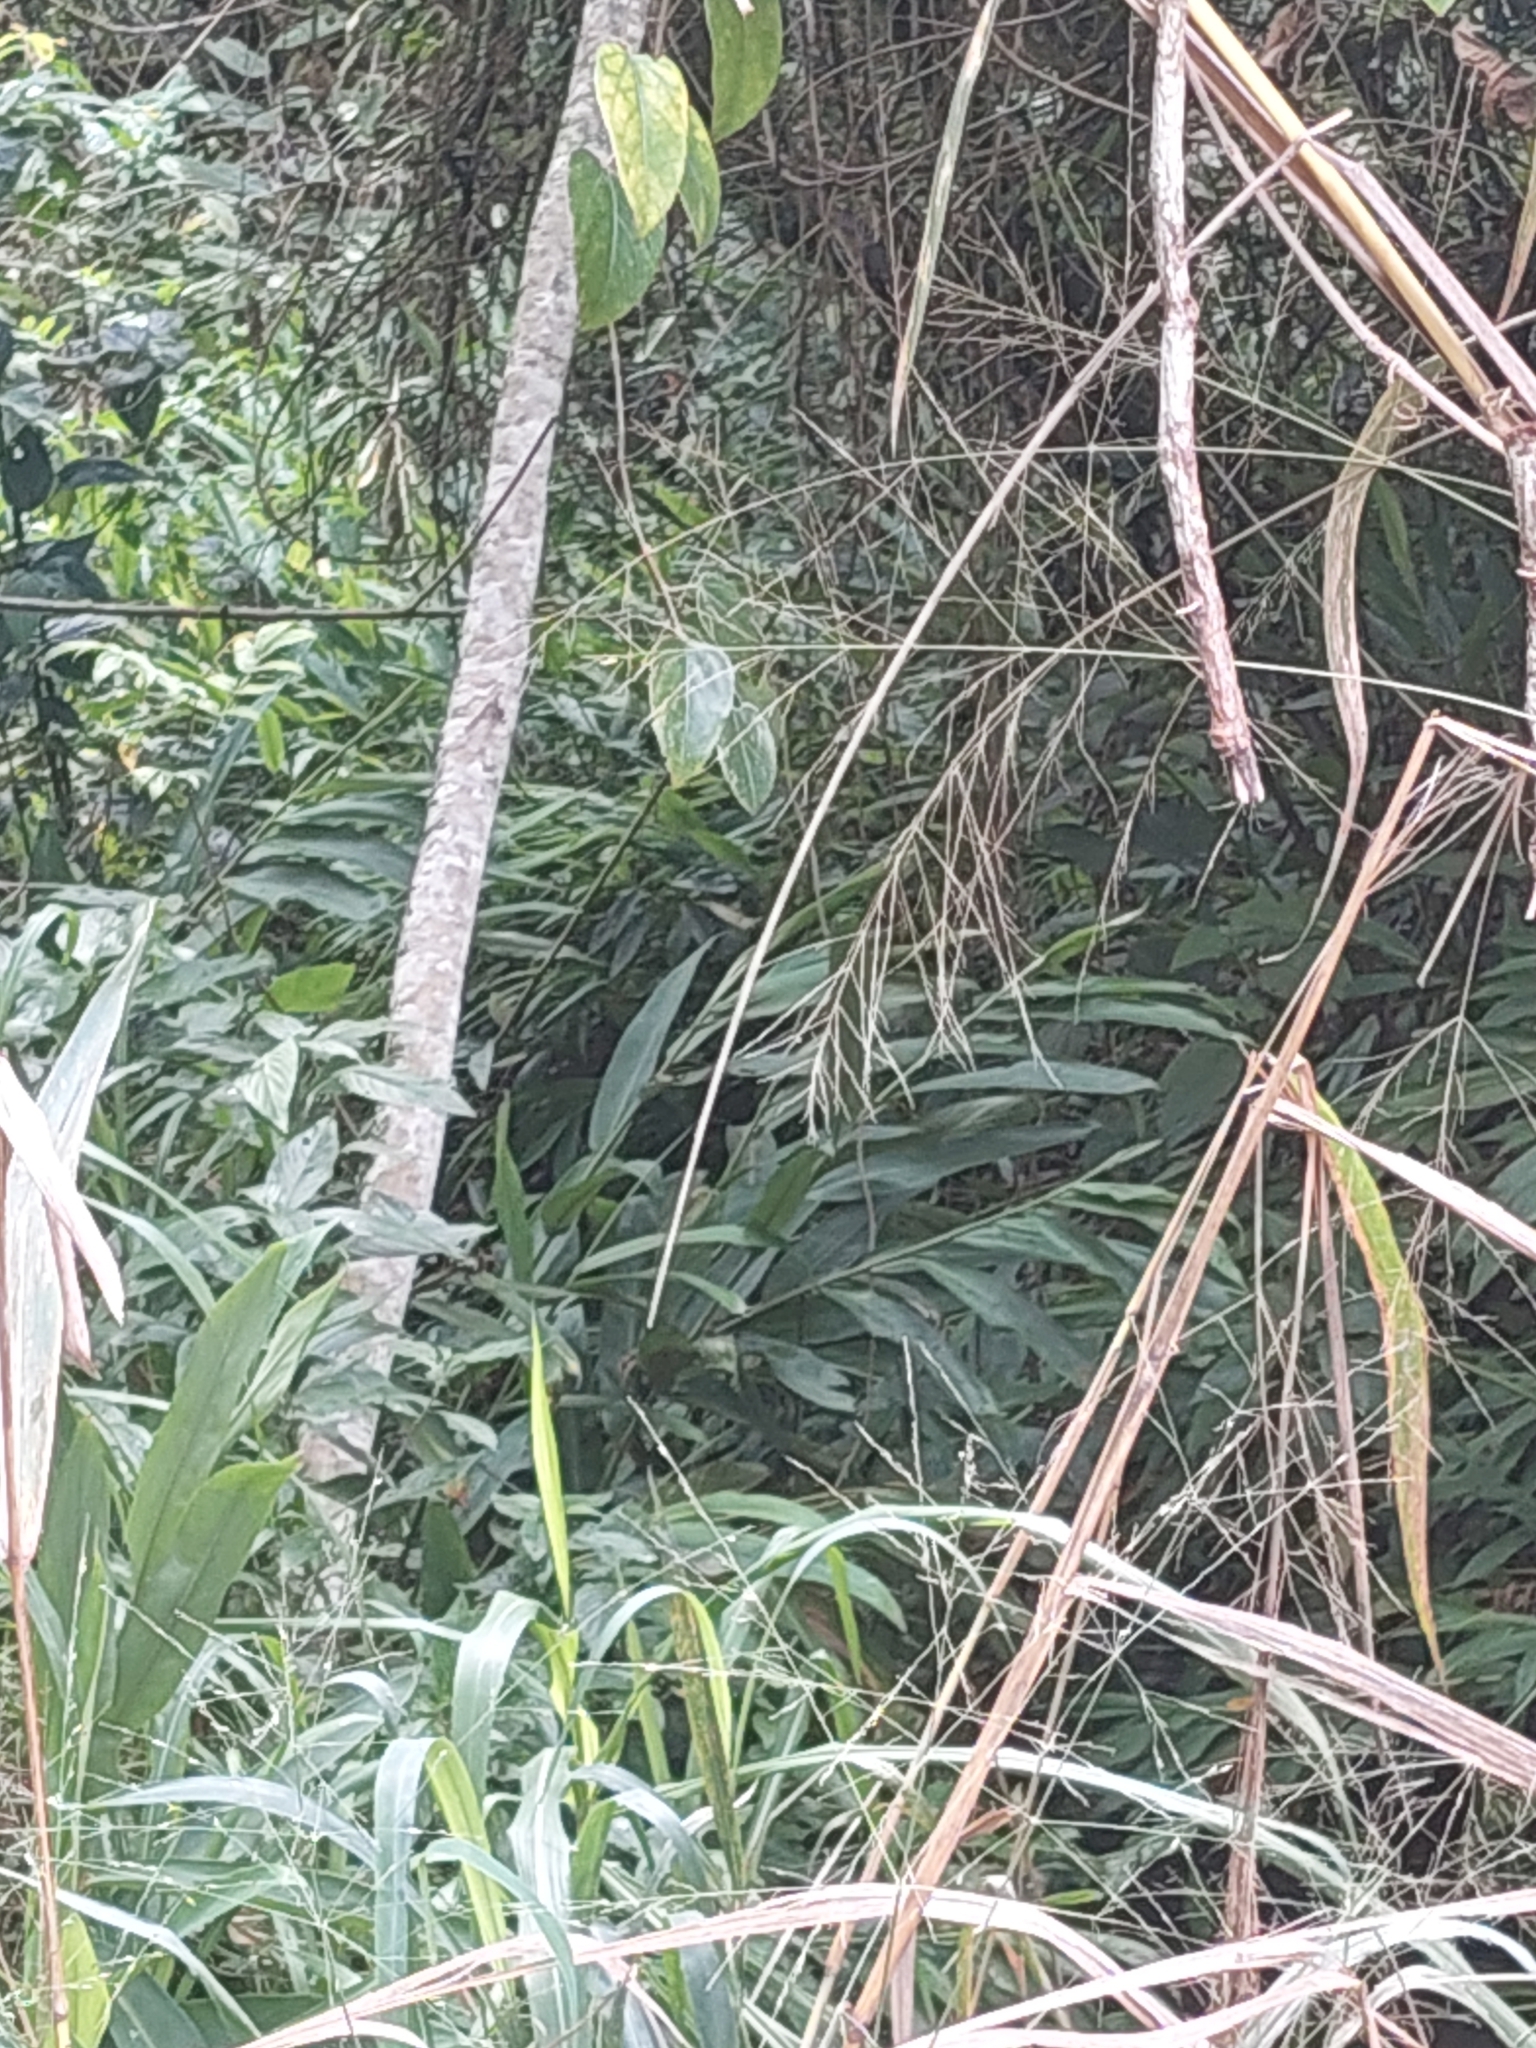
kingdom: Plantae
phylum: Tracheophyta
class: Liliopsida
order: Zingiberales
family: Zingiberaceae
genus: Hedychium
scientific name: Hedychium coronarium
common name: White garland-lily
